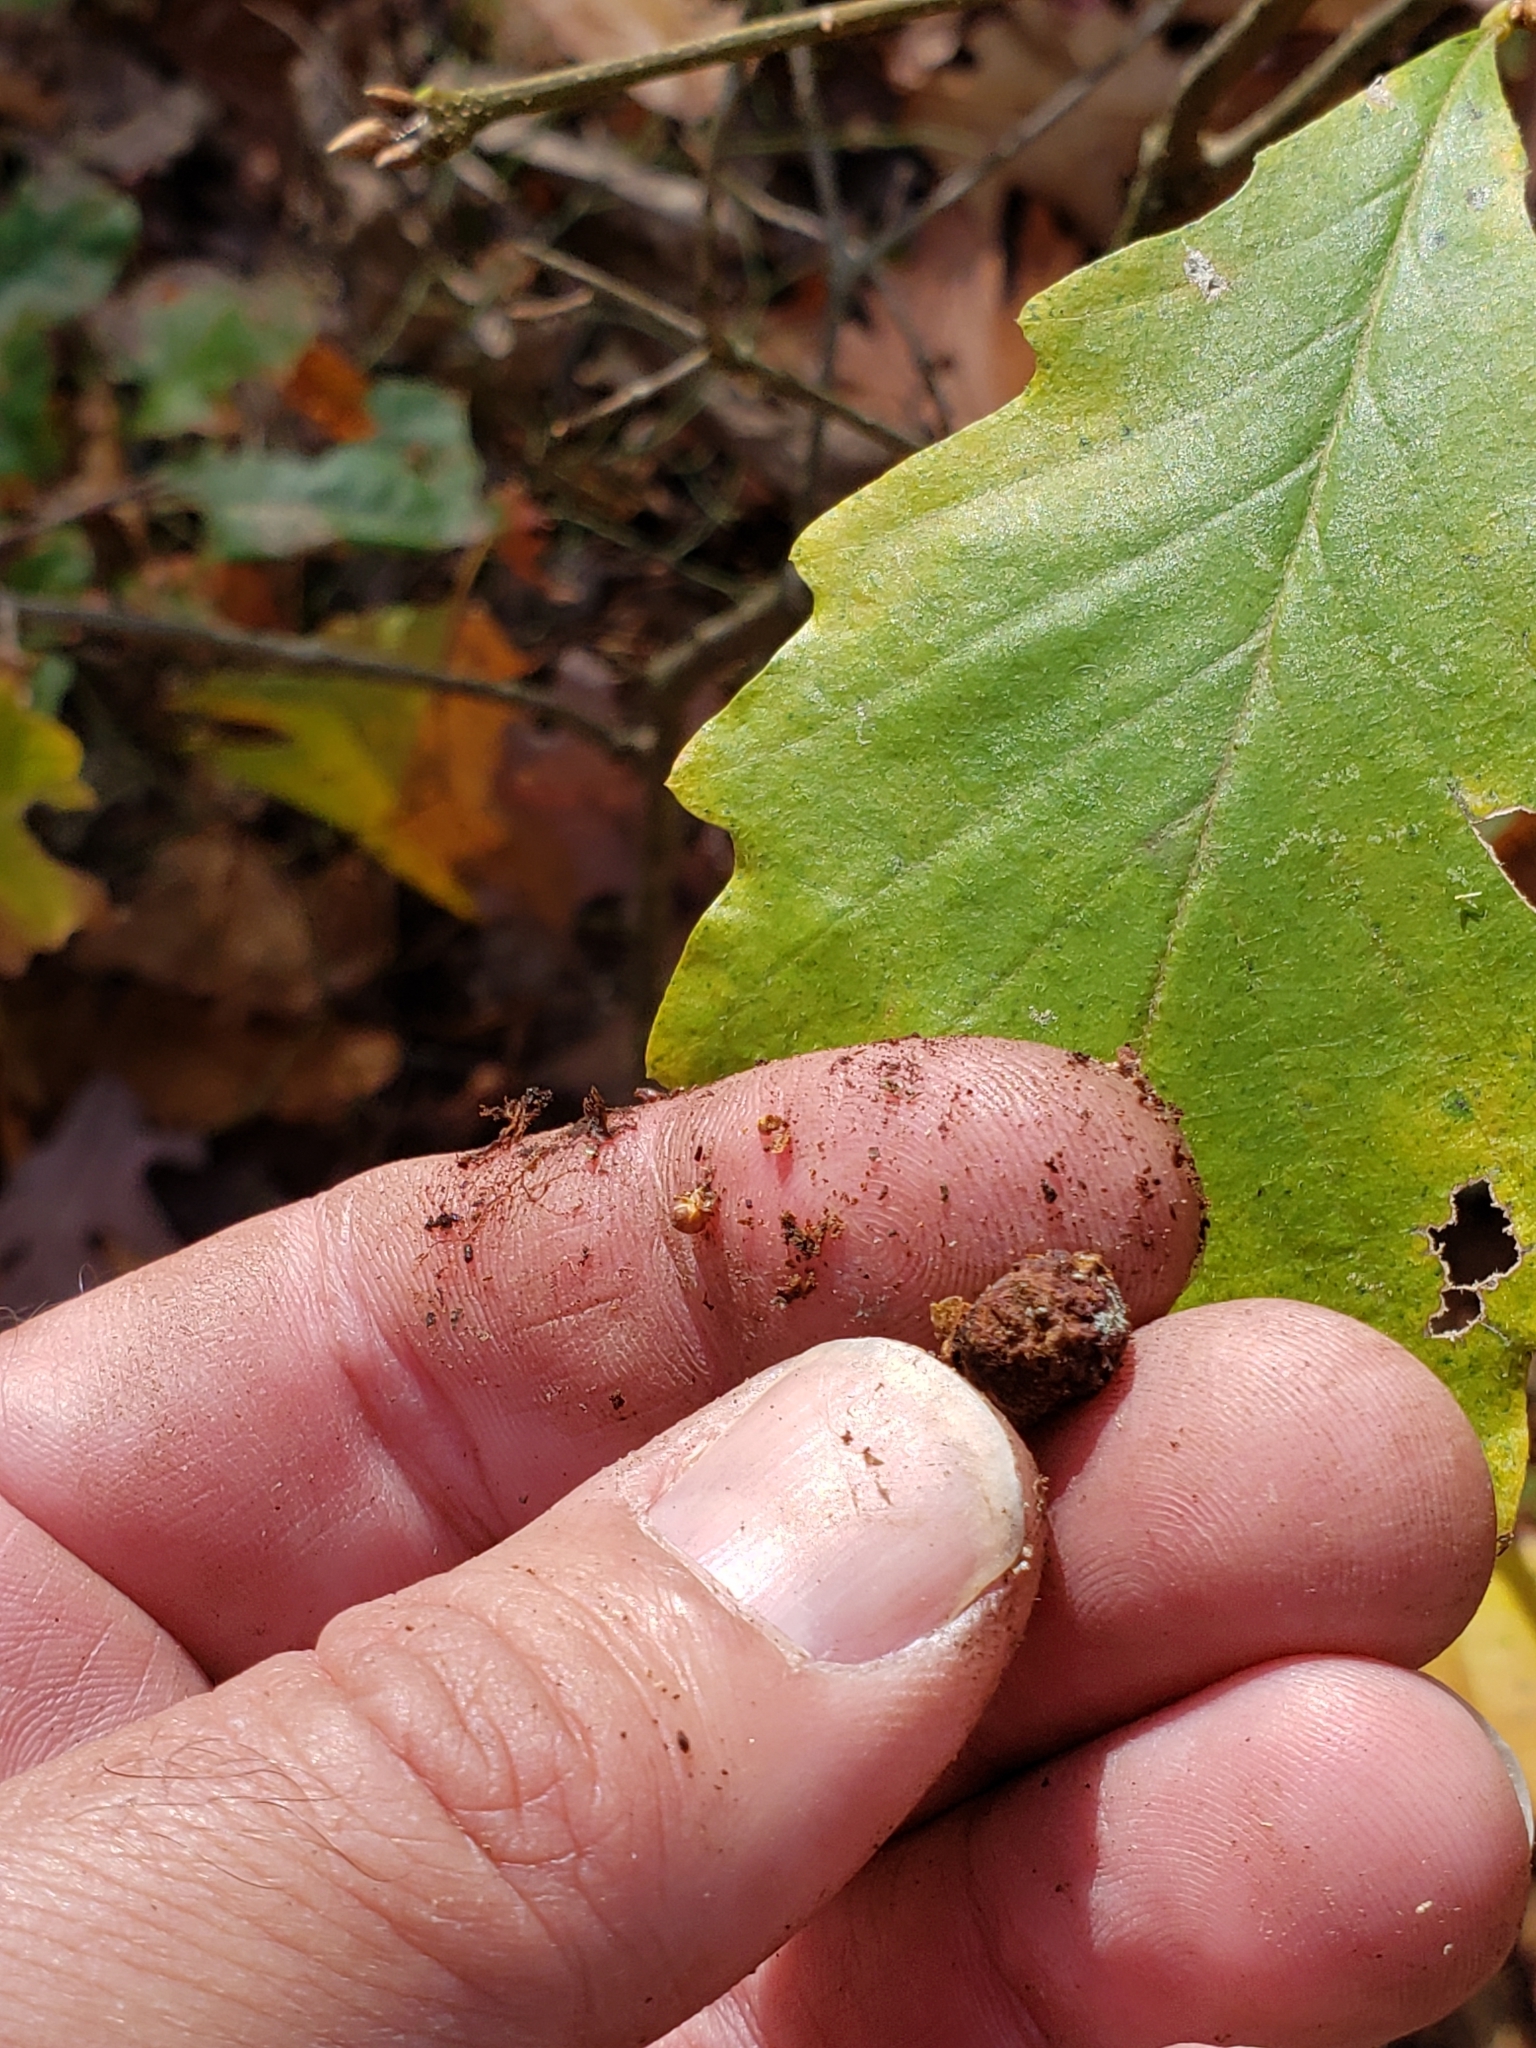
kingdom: Animalia
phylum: Arthropoda
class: Insecta
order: Hymenoptera
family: Cynipidae
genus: Holocynips
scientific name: Holocynips
